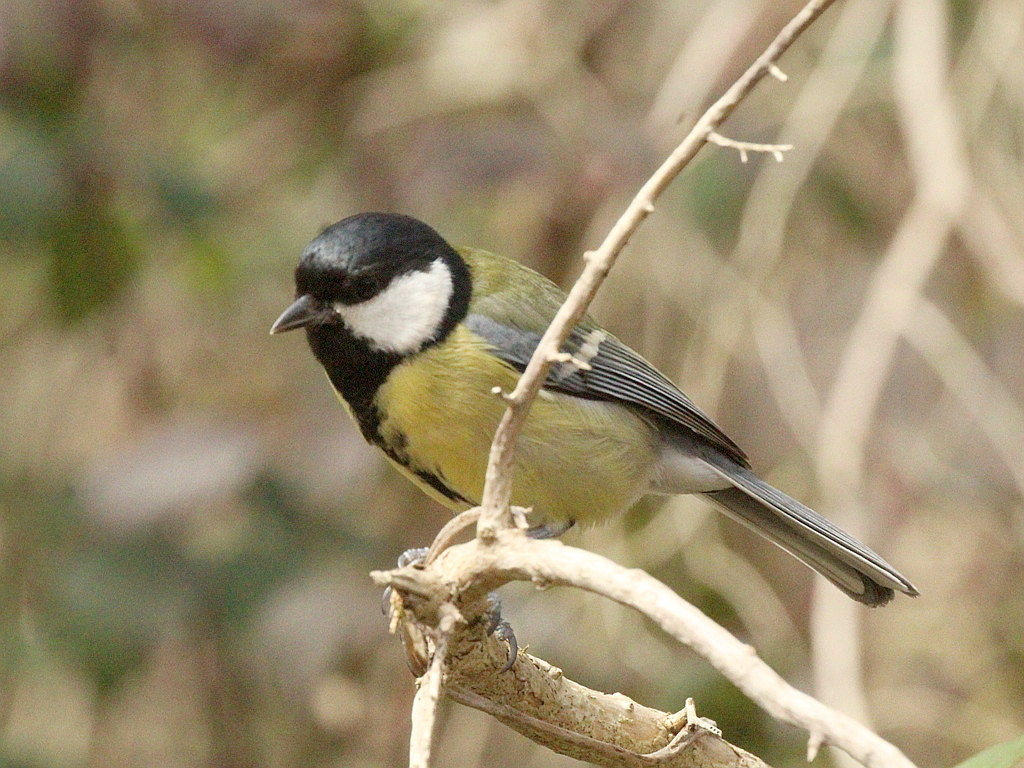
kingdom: Animalia
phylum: Chordata
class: Aves
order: Passeriformes
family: Paridae
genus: Parus
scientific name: Parus major
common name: Great tit
